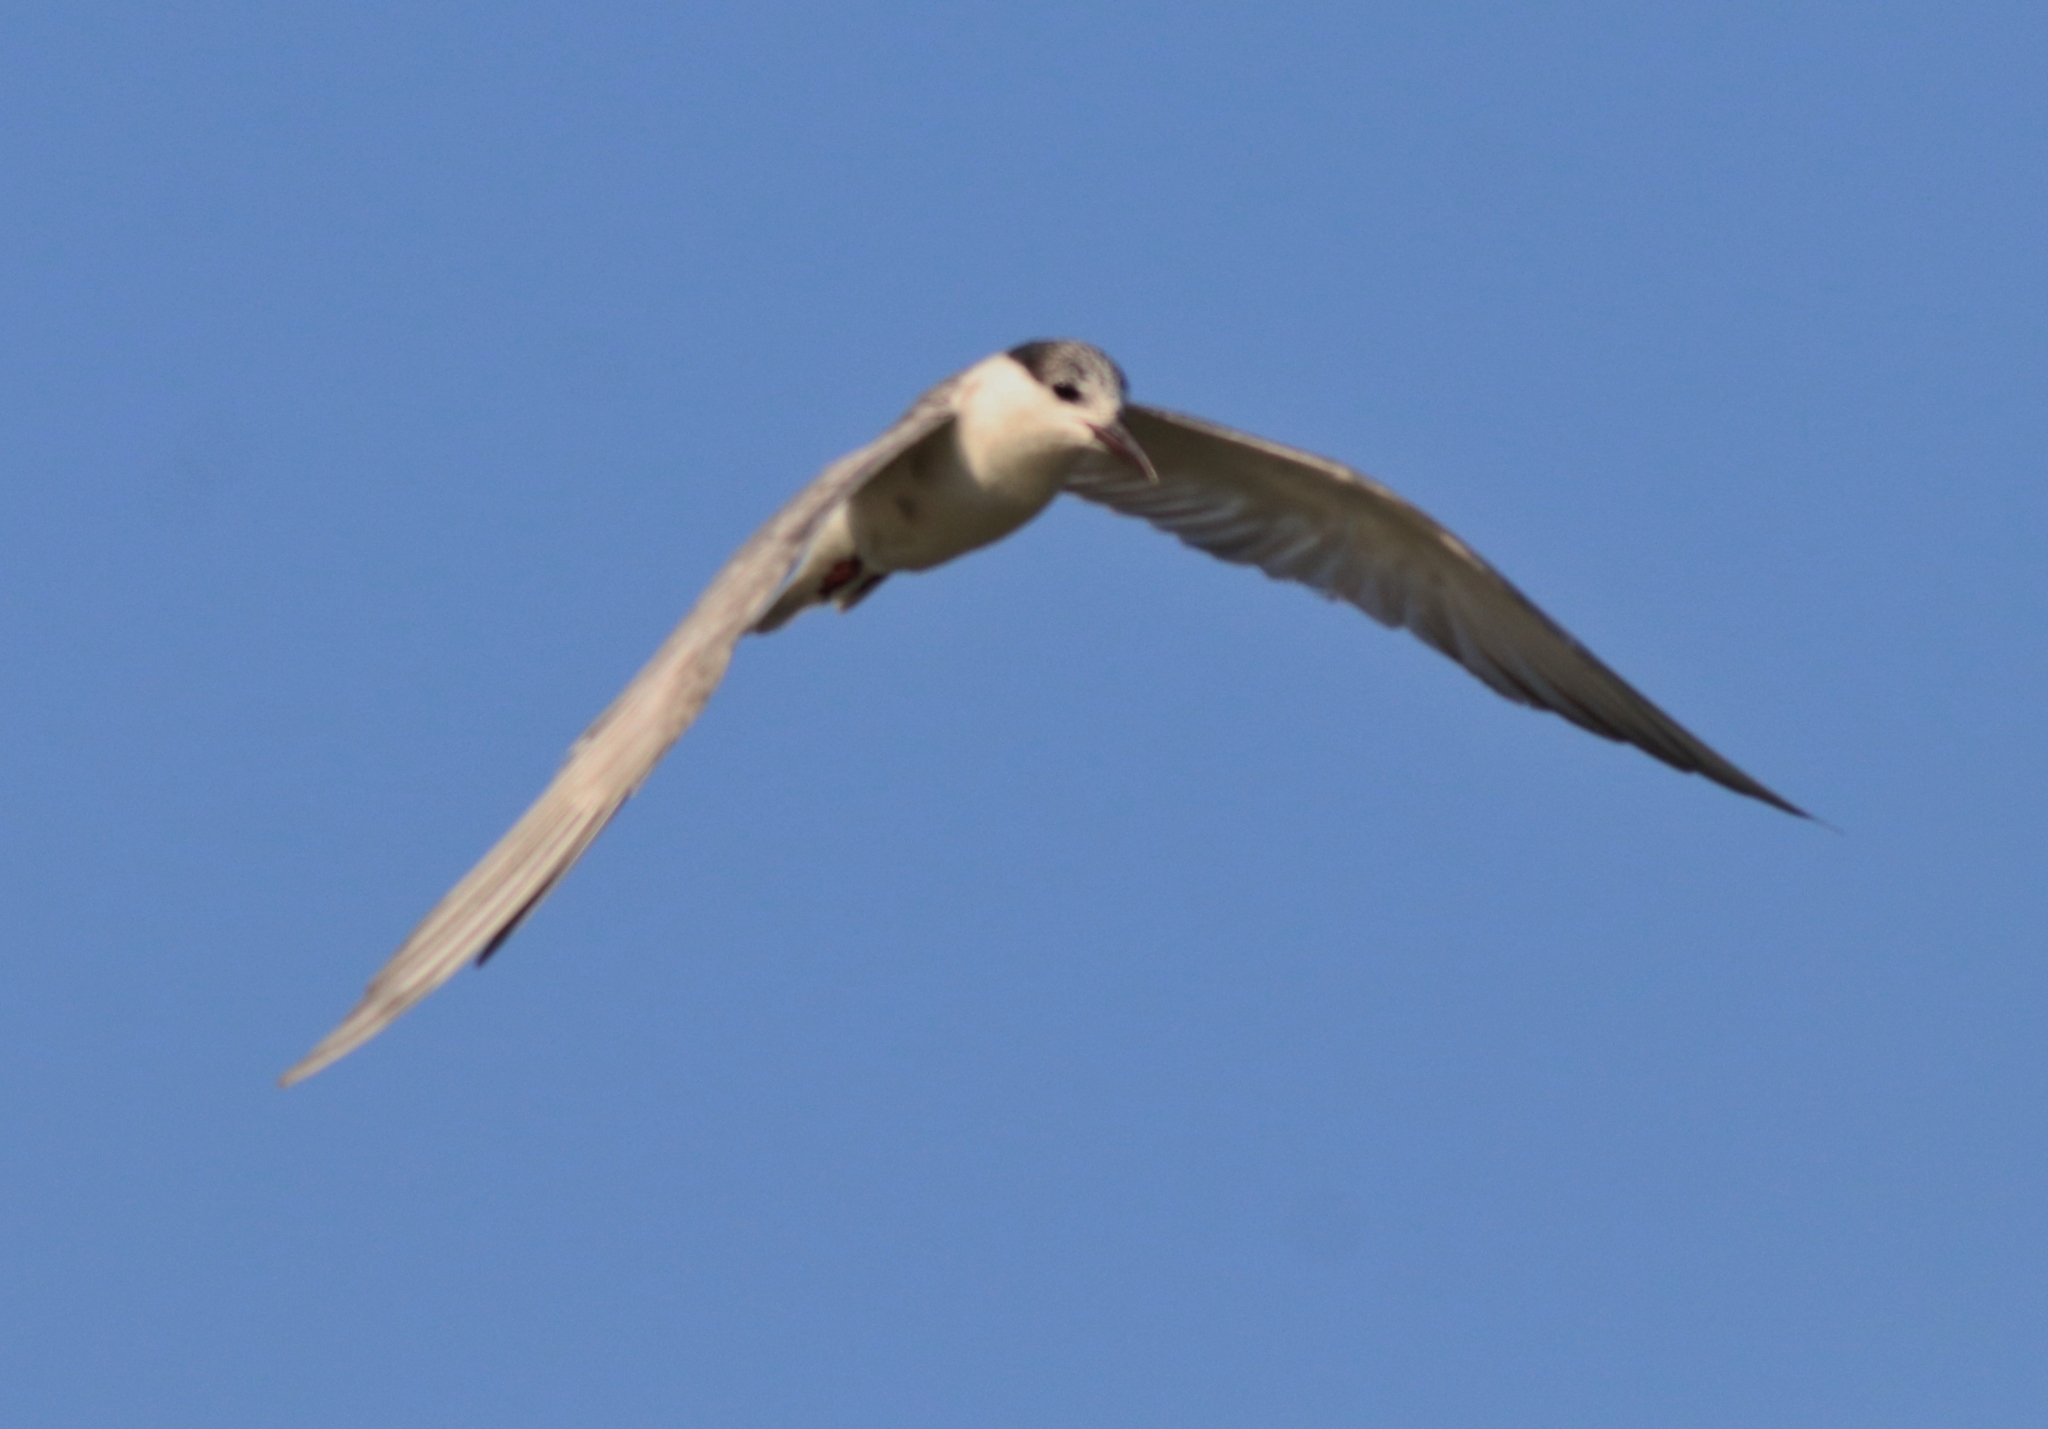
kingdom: Animalia
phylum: Chordata
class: Aves
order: Charadriiformes
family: Laridae
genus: Chlidonias
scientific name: Chlidonias hybrida
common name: Whiskered tern
